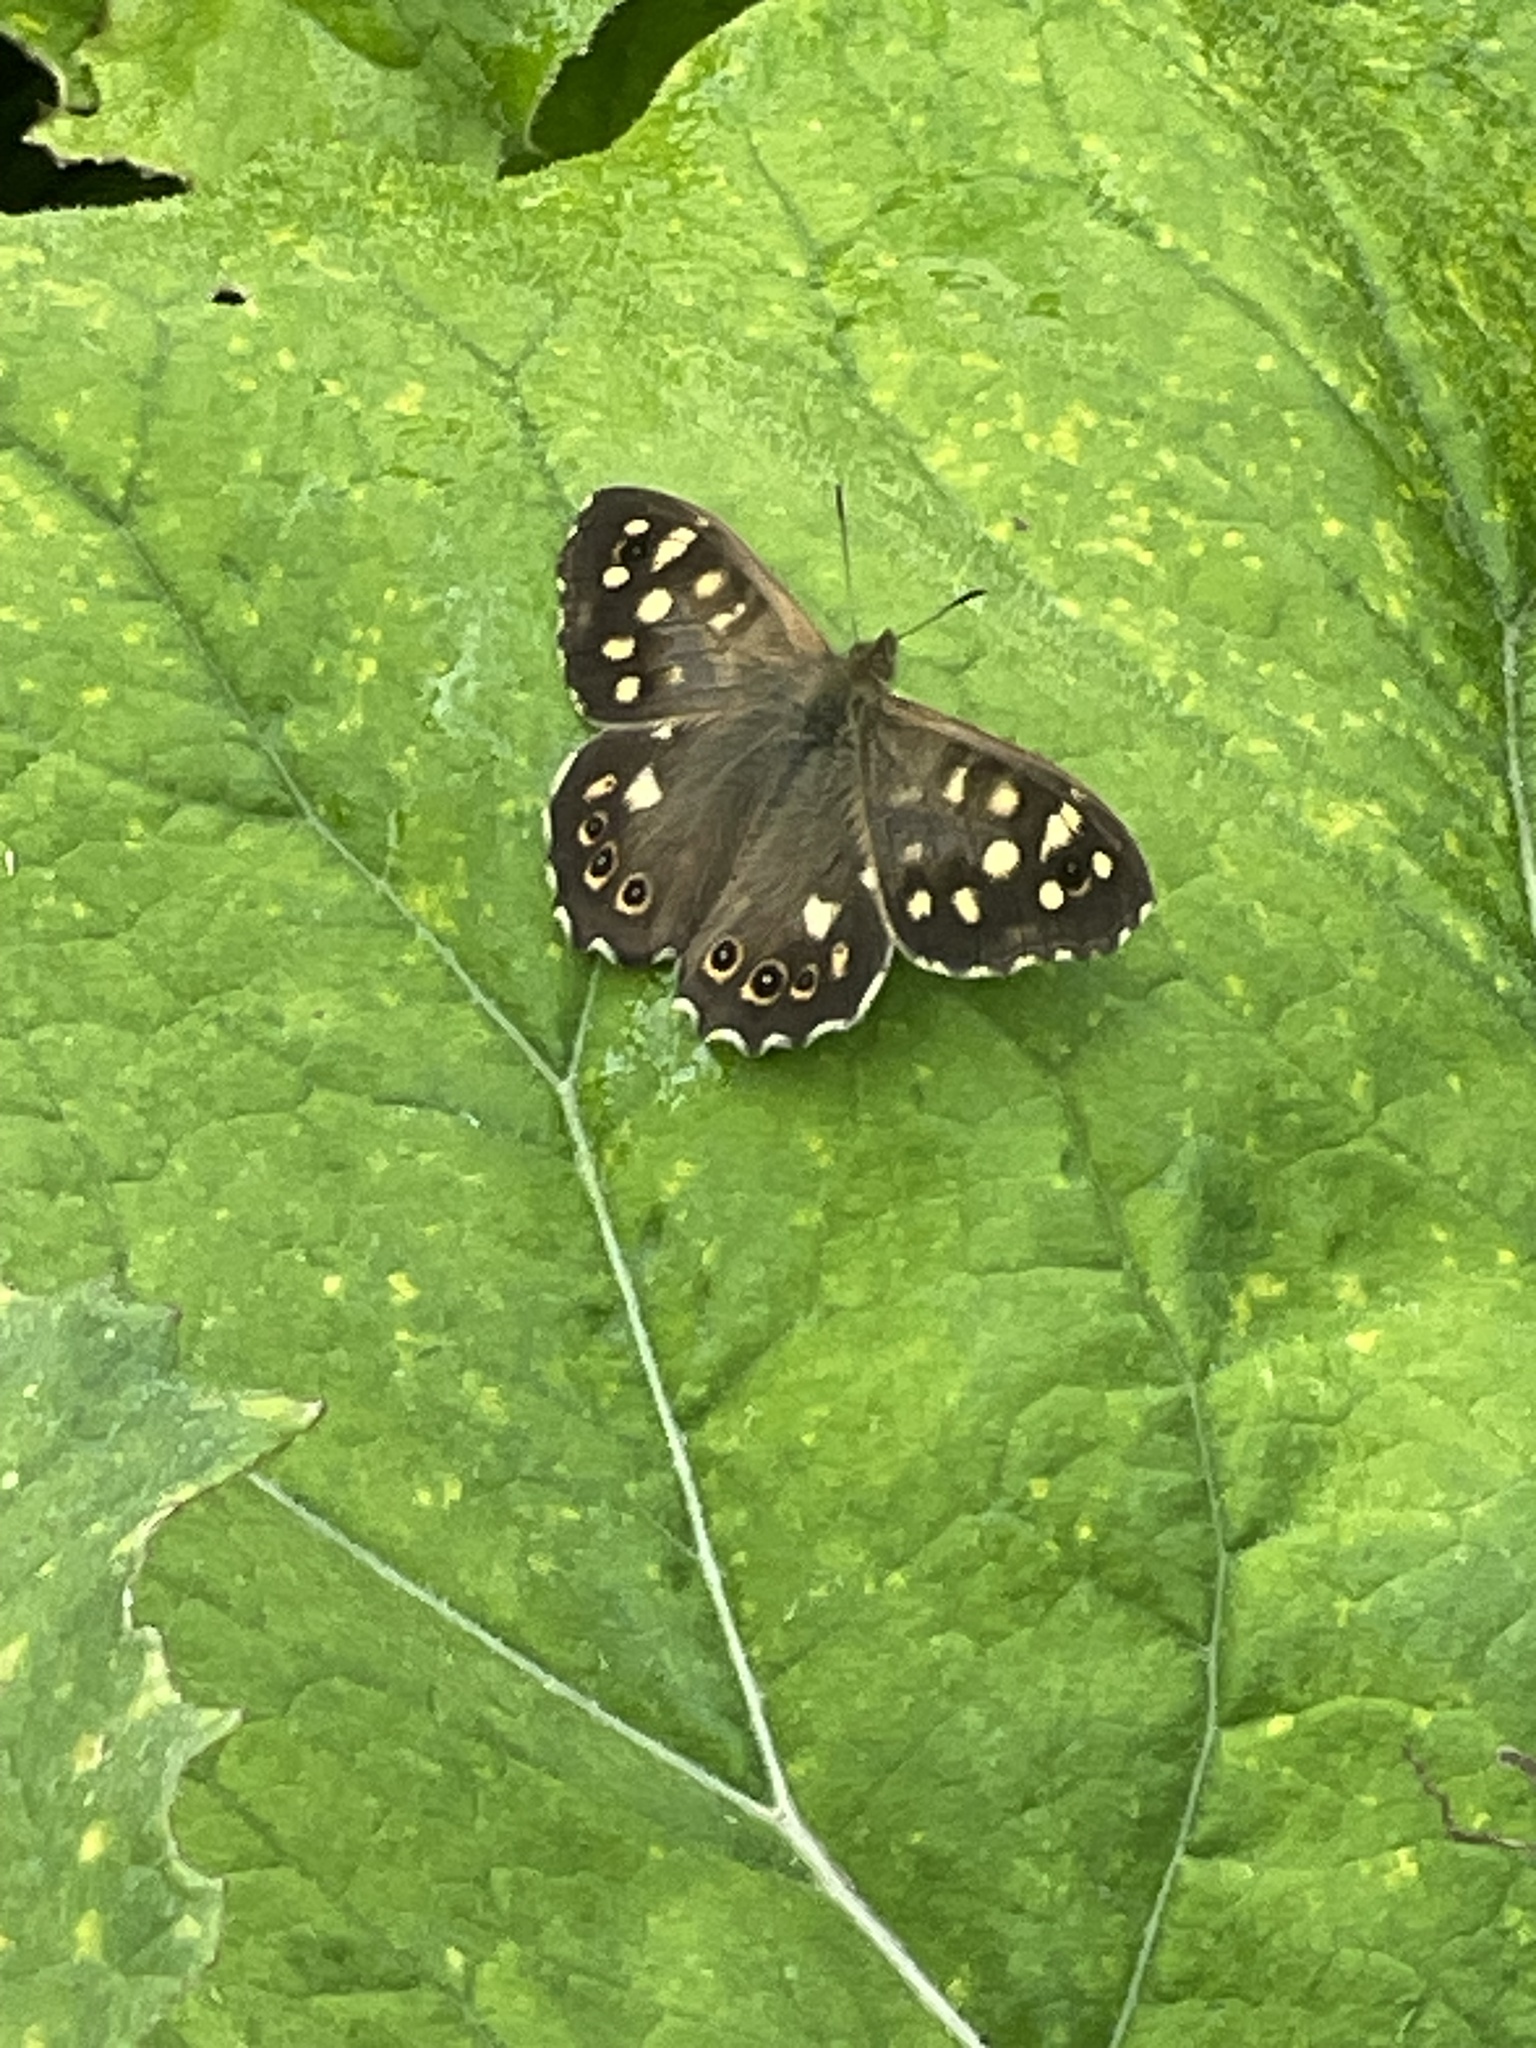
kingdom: Animalia
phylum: Arthropoda
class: Insecta
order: Lepidoptera
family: Nymphalidae
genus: Pararge
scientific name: Pararge aegeria
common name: Speckled wood
